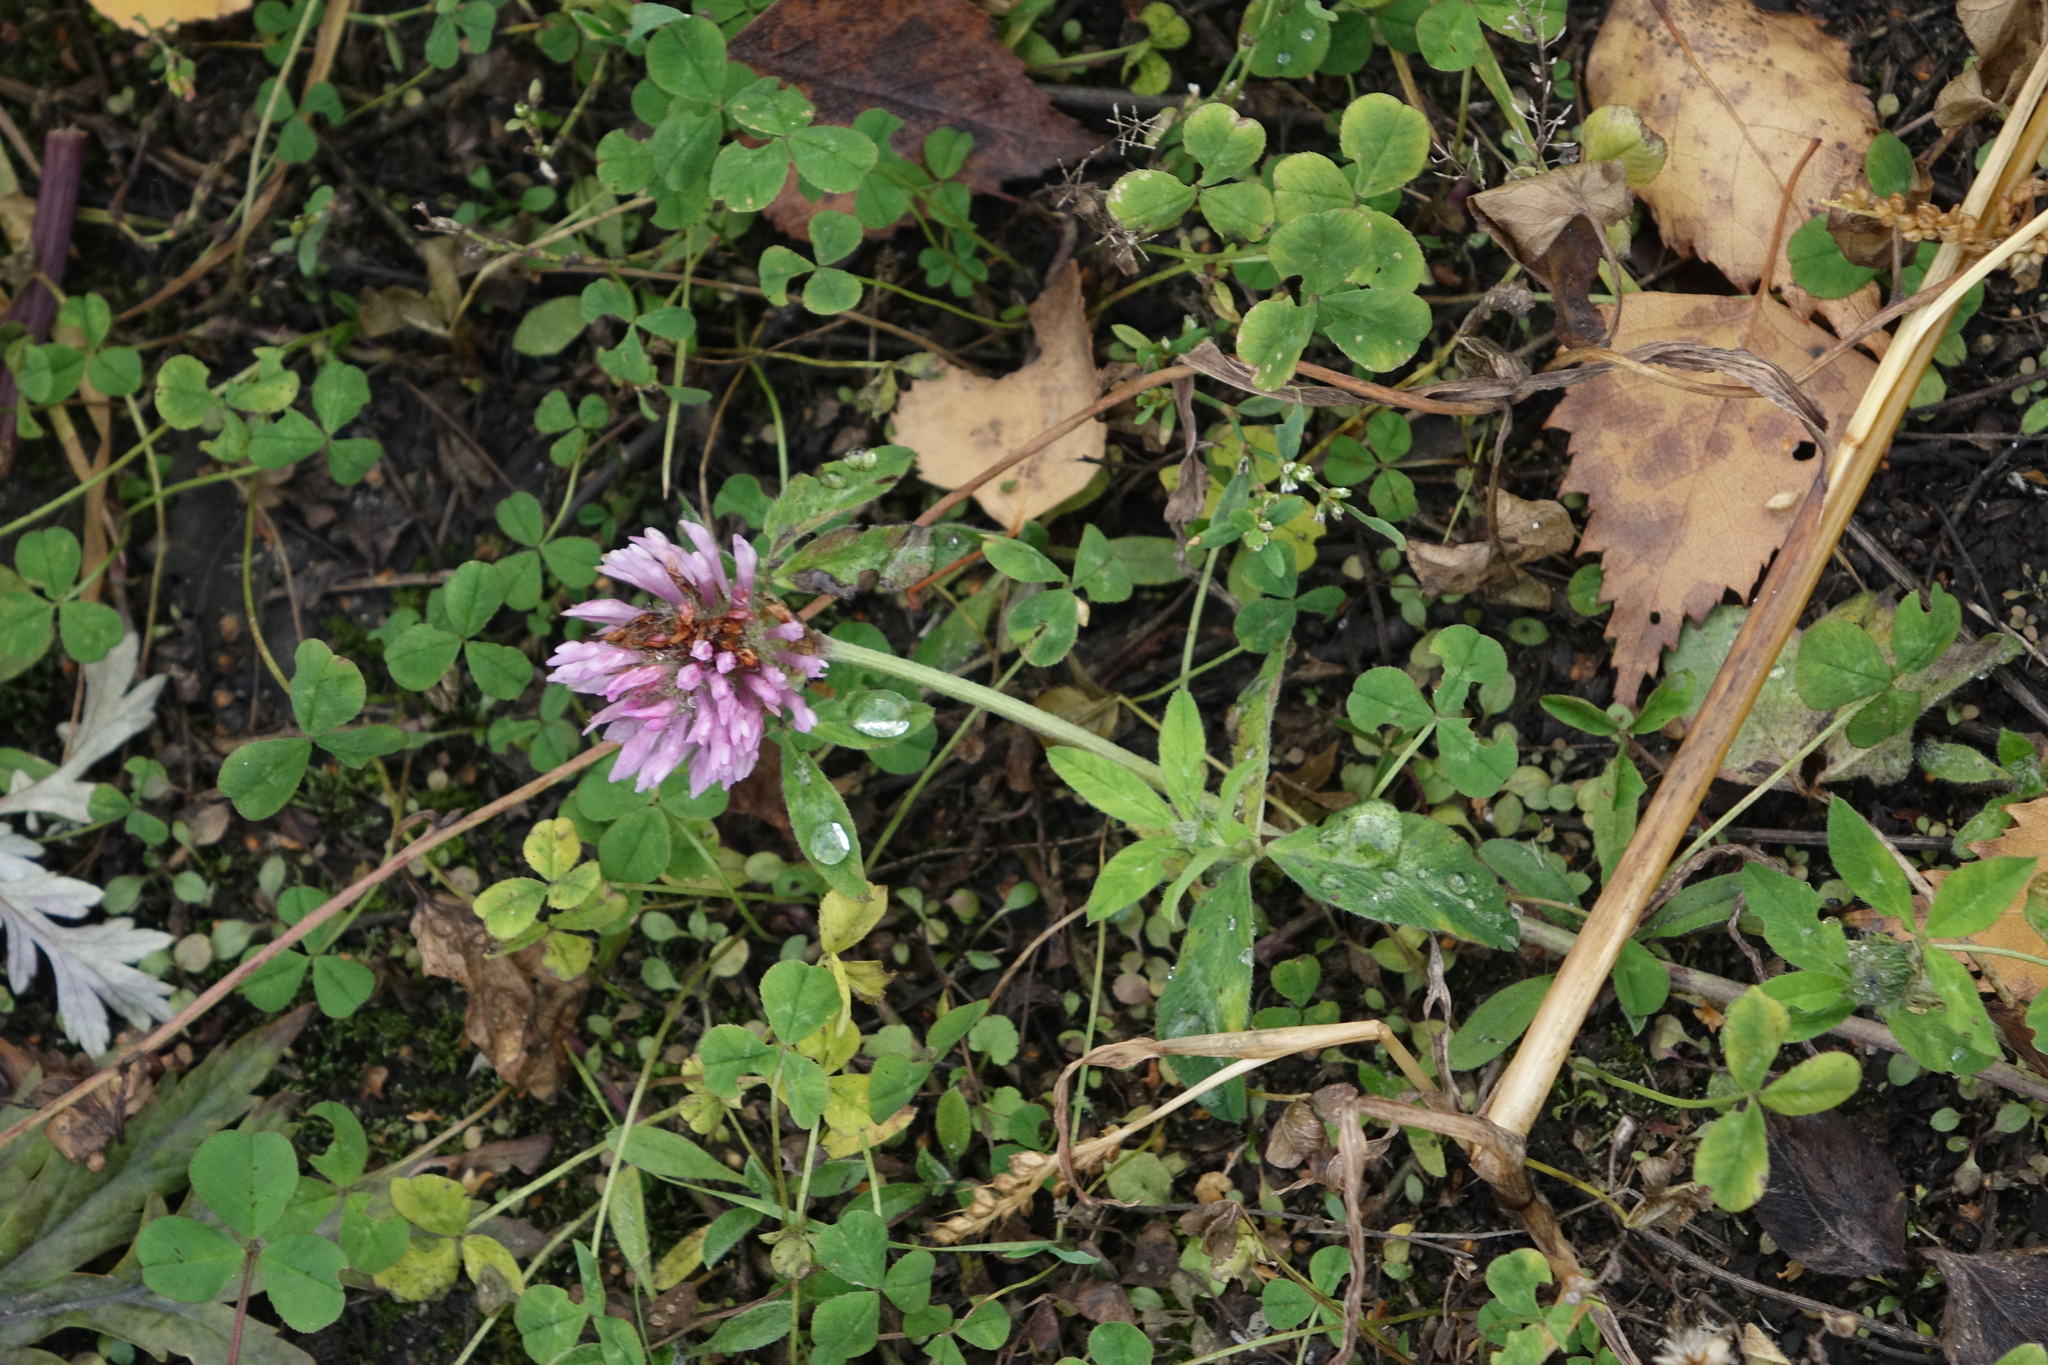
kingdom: Plantae
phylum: Tracheophyta
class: Magnoliopsida
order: Fabales
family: Fabaceae
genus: Trifolium
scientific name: Trifolium pratense
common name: Red clover
